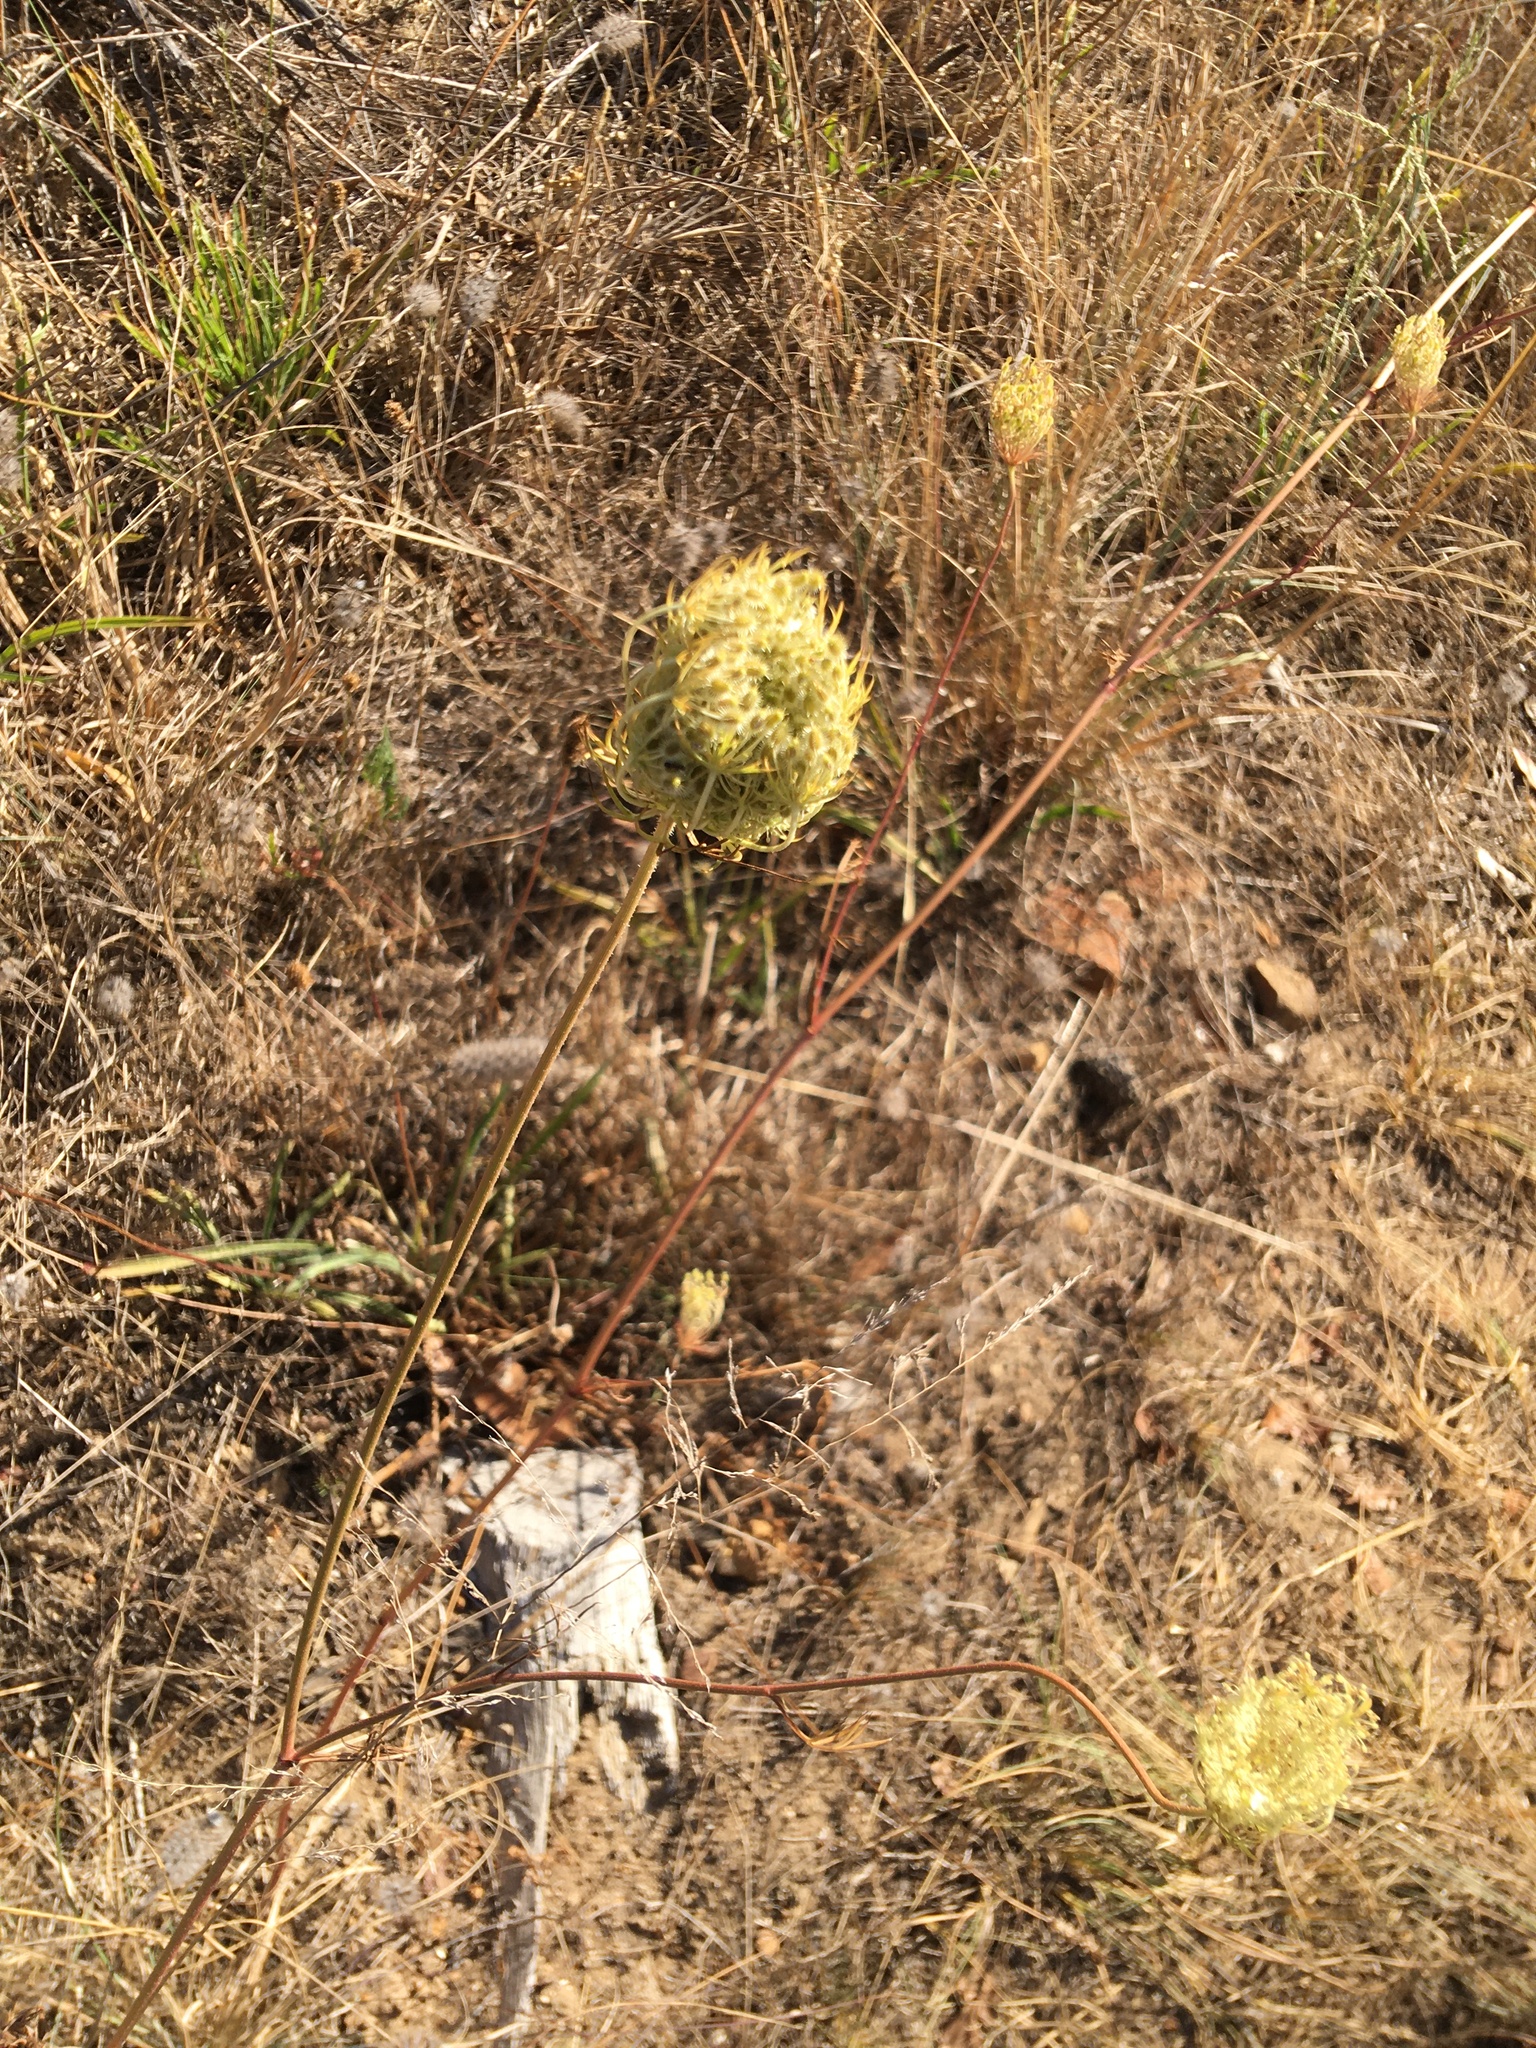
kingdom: Plantae
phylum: Tracheophyta
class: Magnoliopsida
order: Apiales
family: Apiaceae
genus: Daucus
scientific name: Daucus carota
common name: Wild carrot
